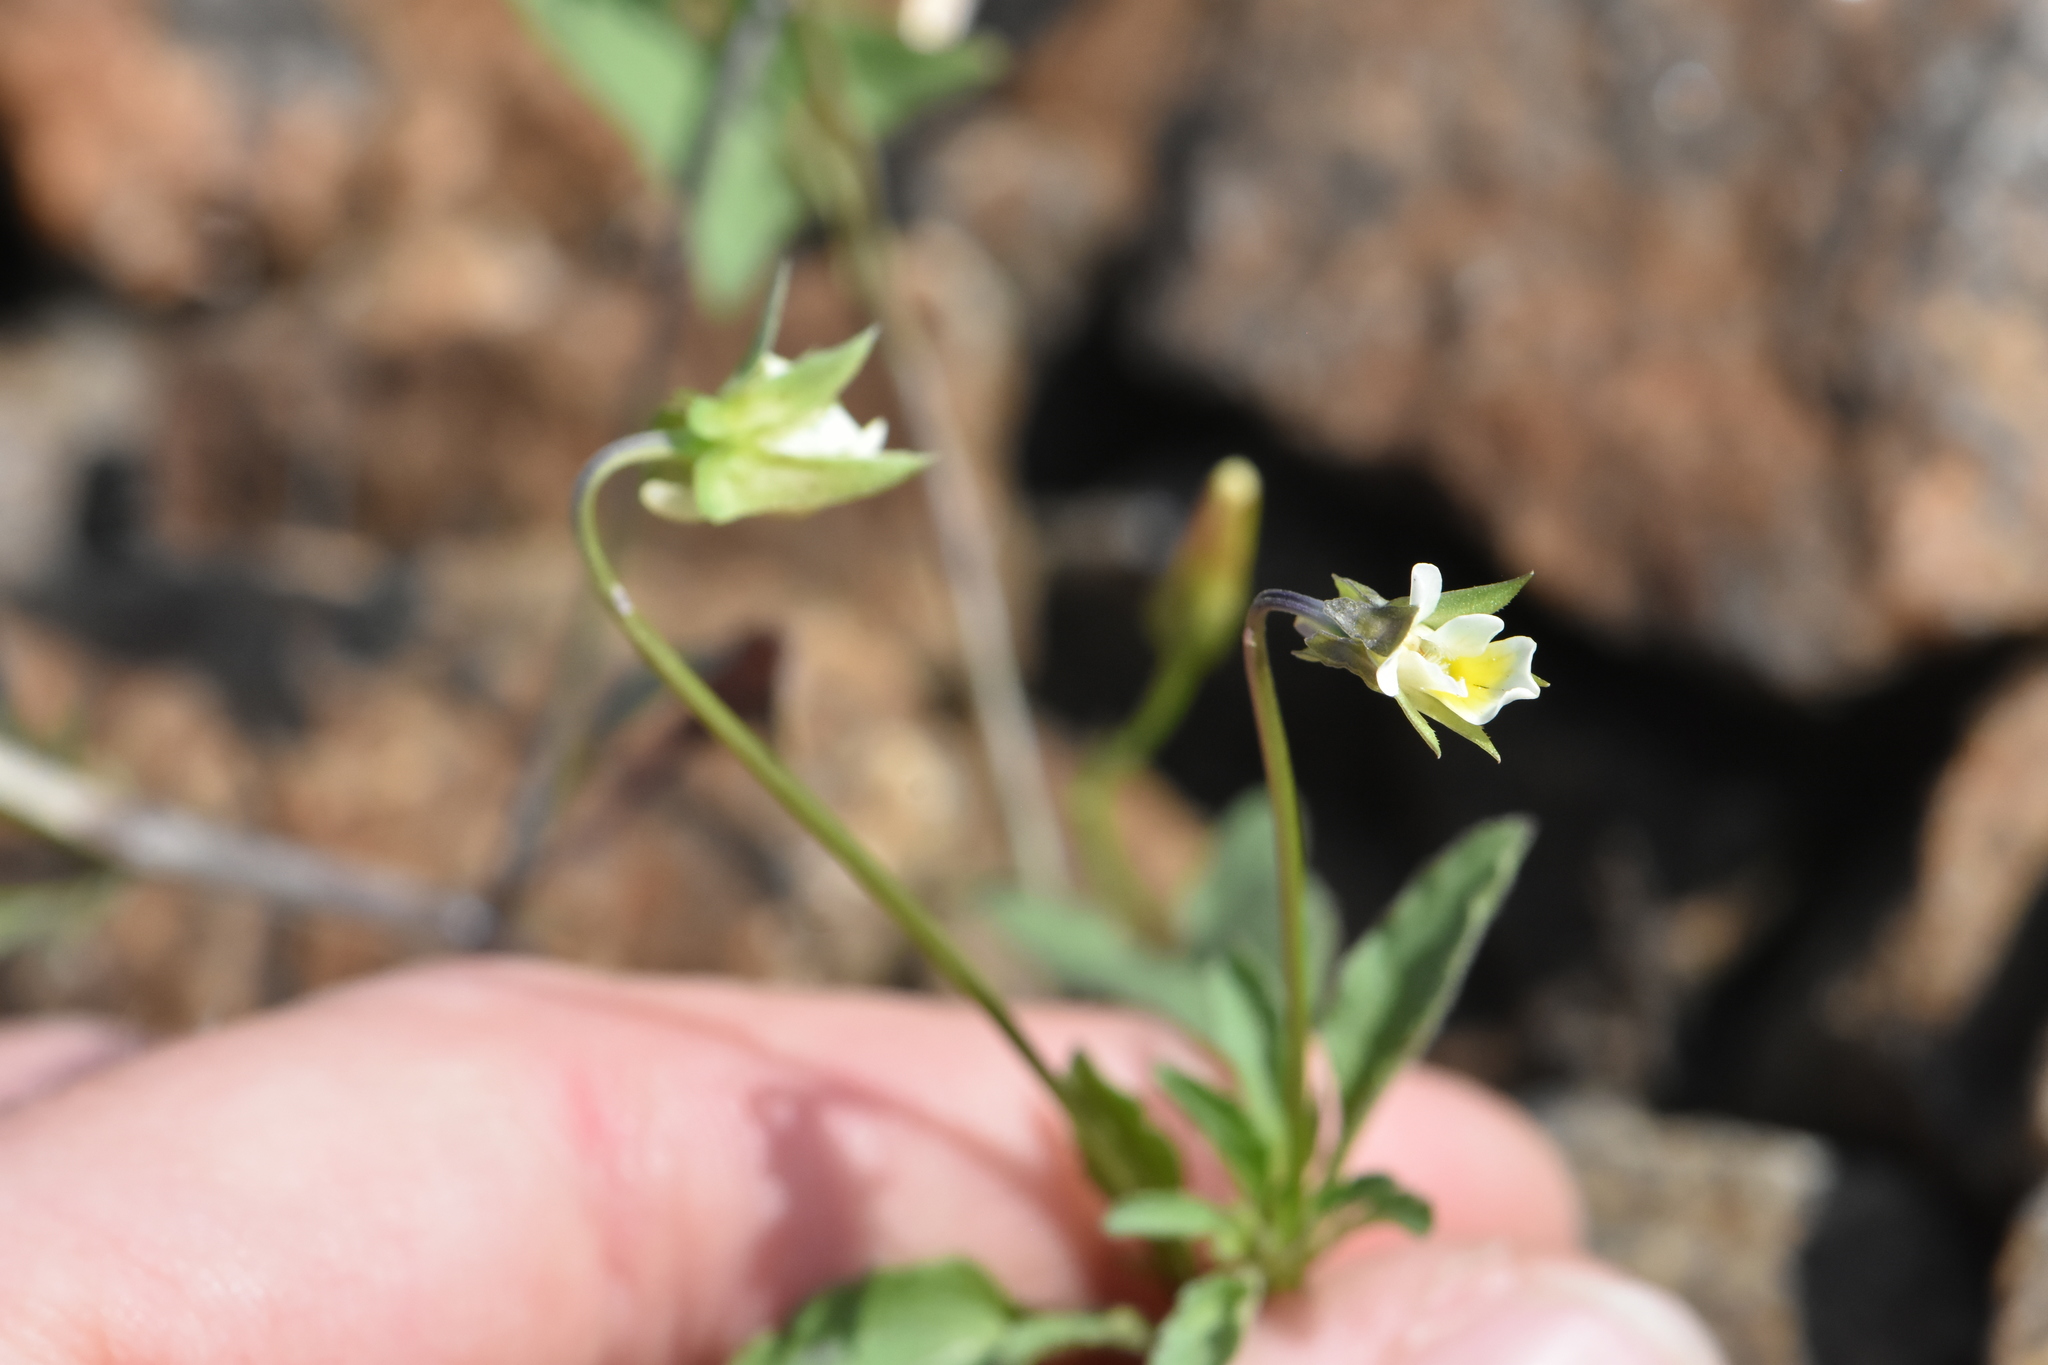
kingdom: Plantae
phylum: Tracheophyta
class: Magnoliopsida
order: Malpighiales
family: Violaceae
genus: Viola
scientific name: Viola arvensis
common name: Field pansy
